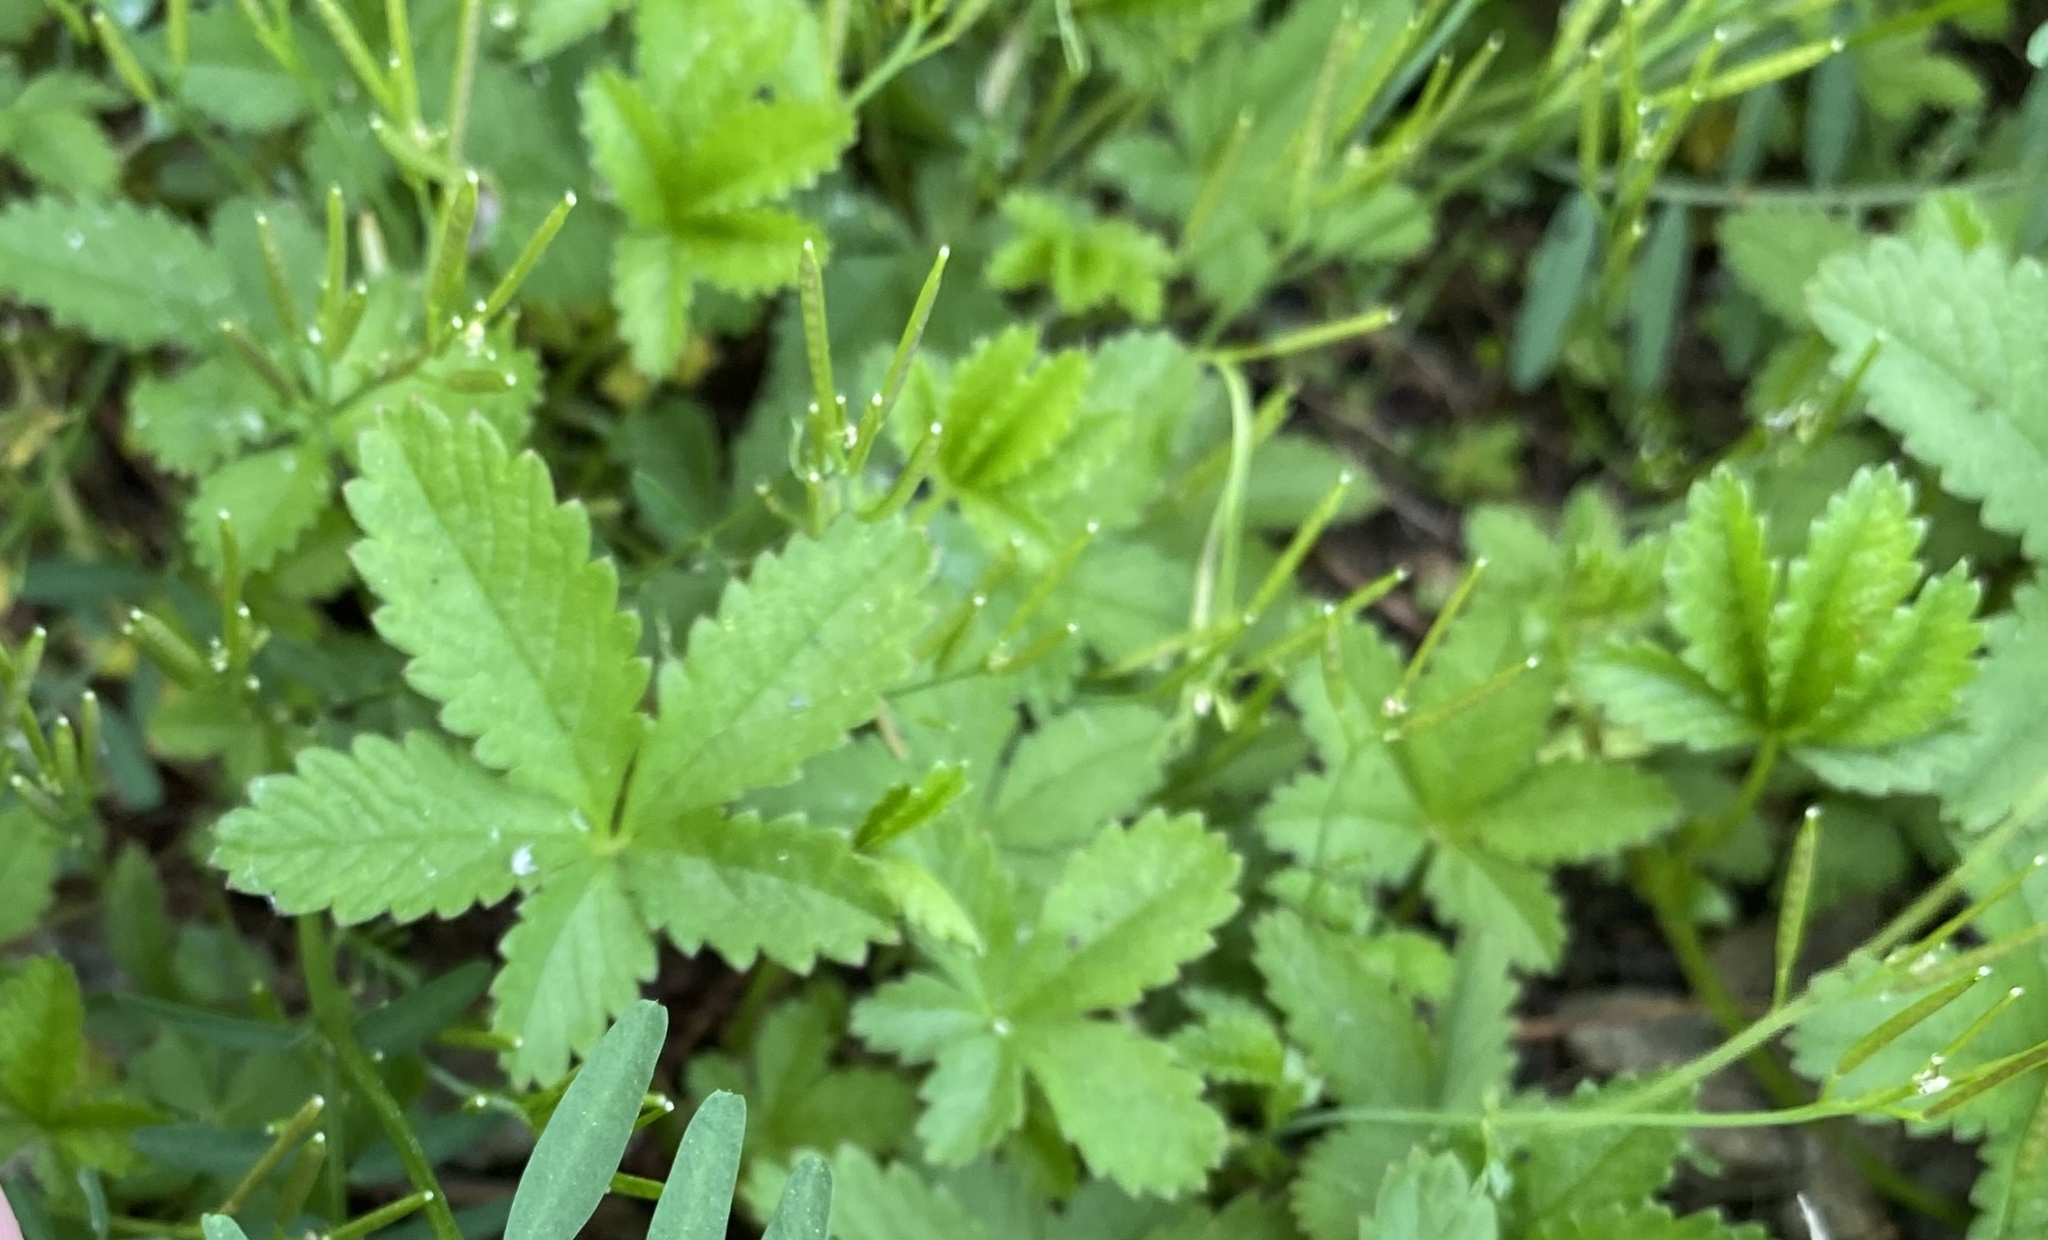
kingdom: Plantae
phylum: Tracheophyta
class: Magnoliopsida
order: Rosales
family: Rosaceae
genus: Potentilla
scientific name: Potentilla reptans
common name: Creeping cinquefoil
